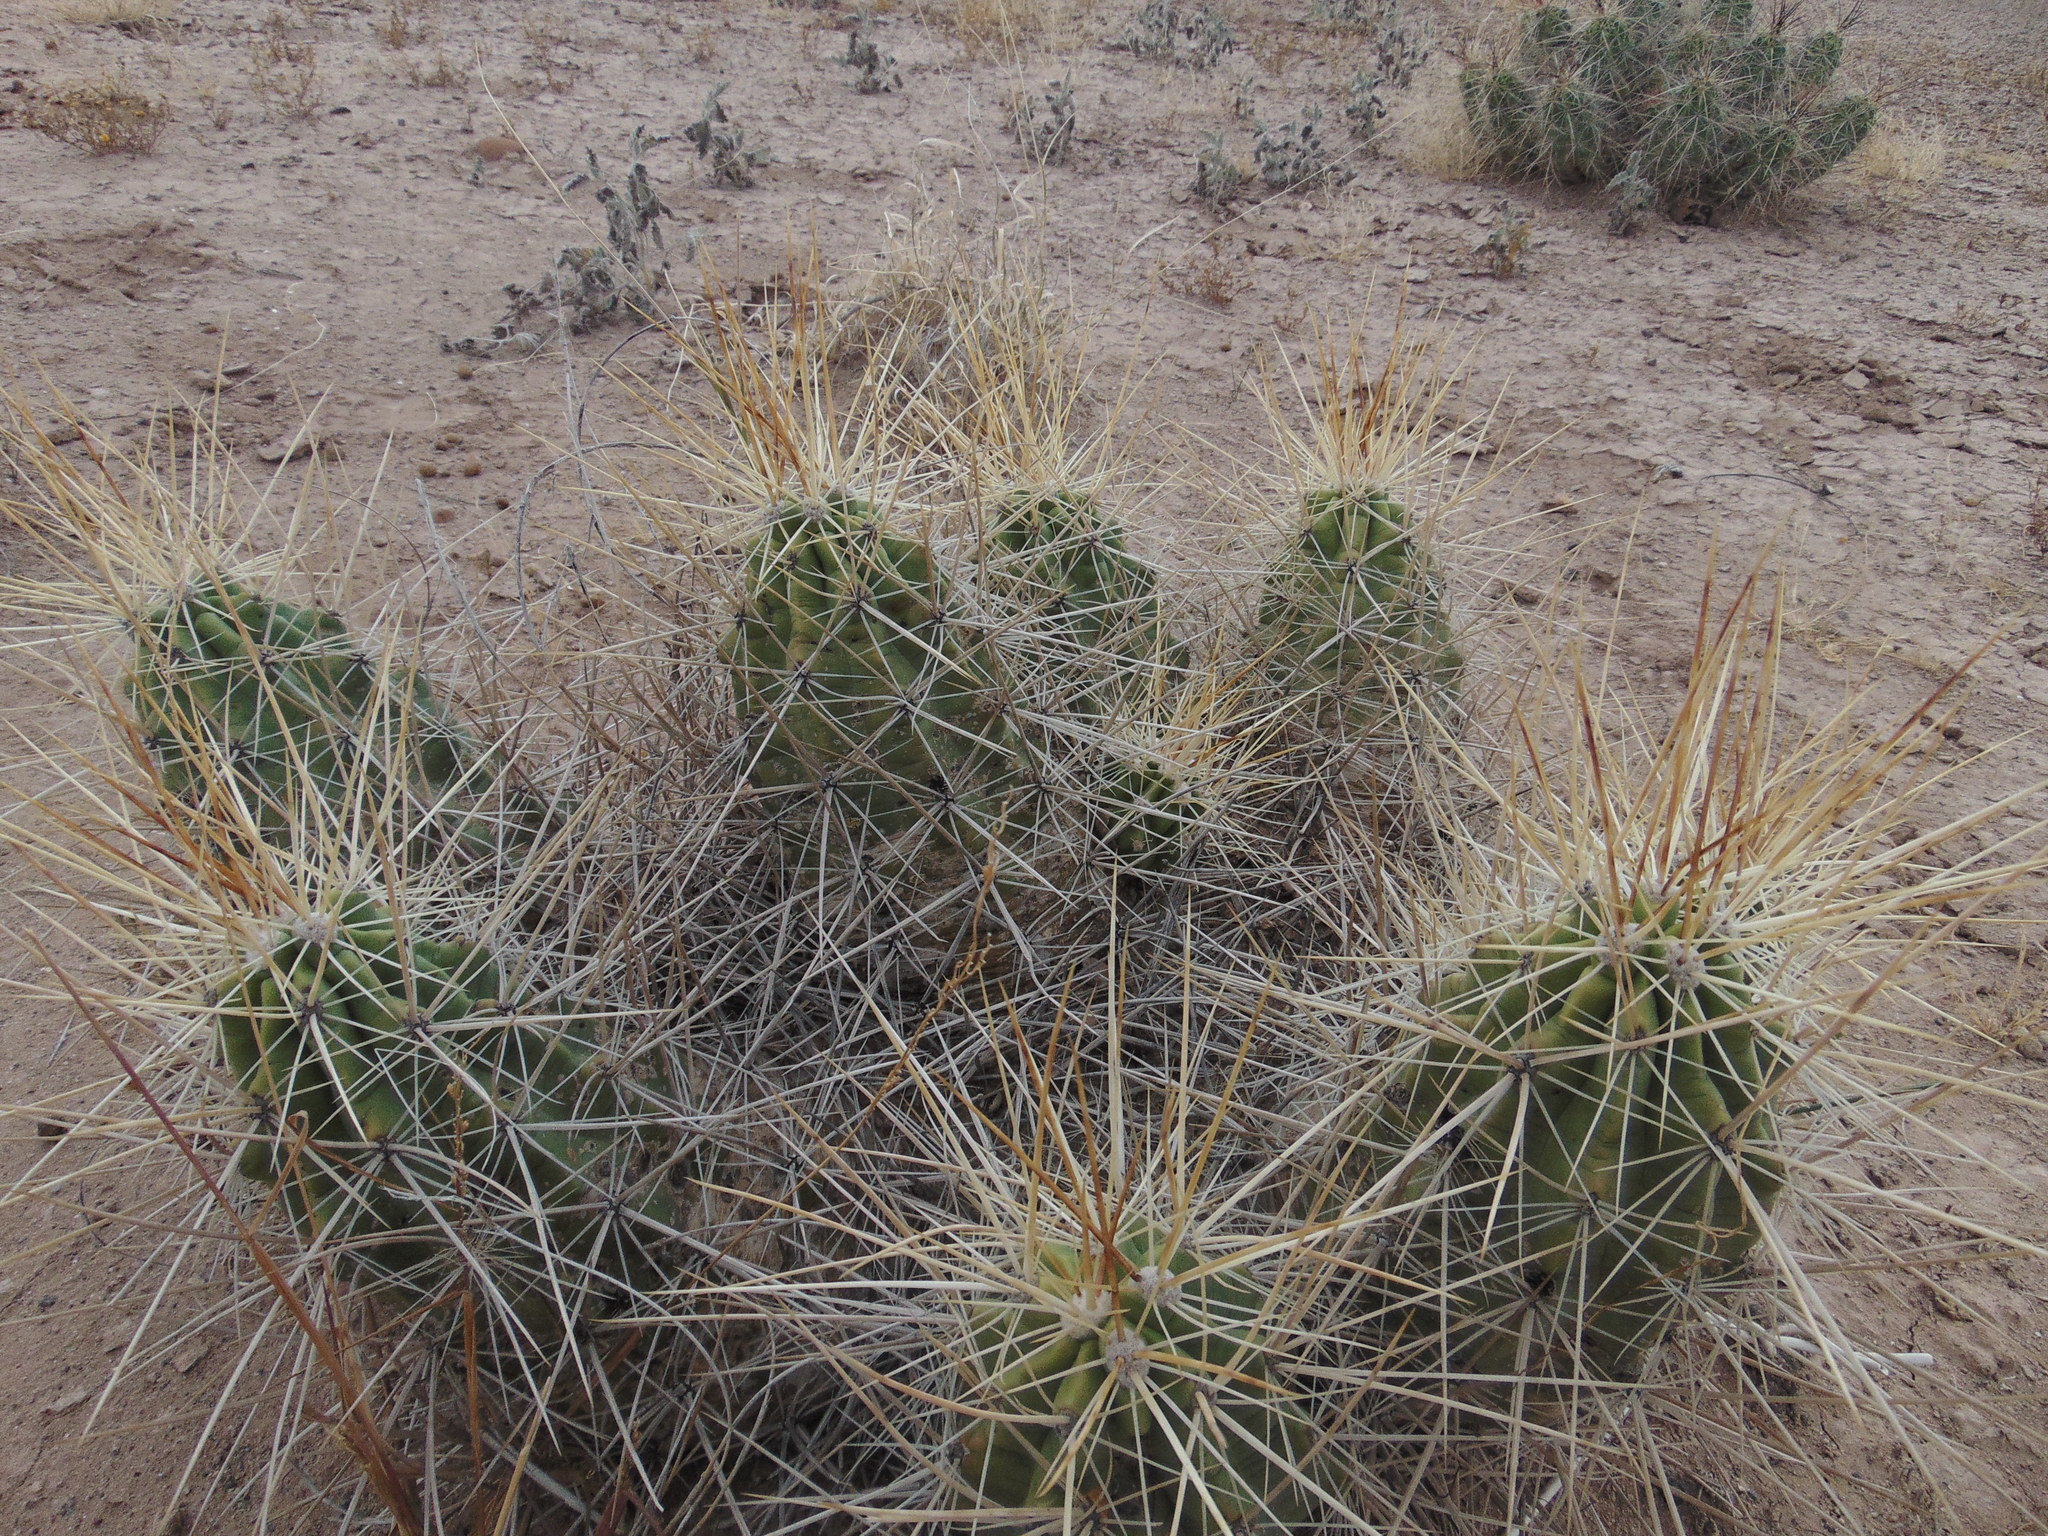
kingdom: Plantae
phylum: Tracheophyta
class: Magnoliopsida
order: Caryophyllales
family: Cactaceae
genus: Echinocereus
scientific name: Echinocereus enneacanthus
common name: Pitaya
